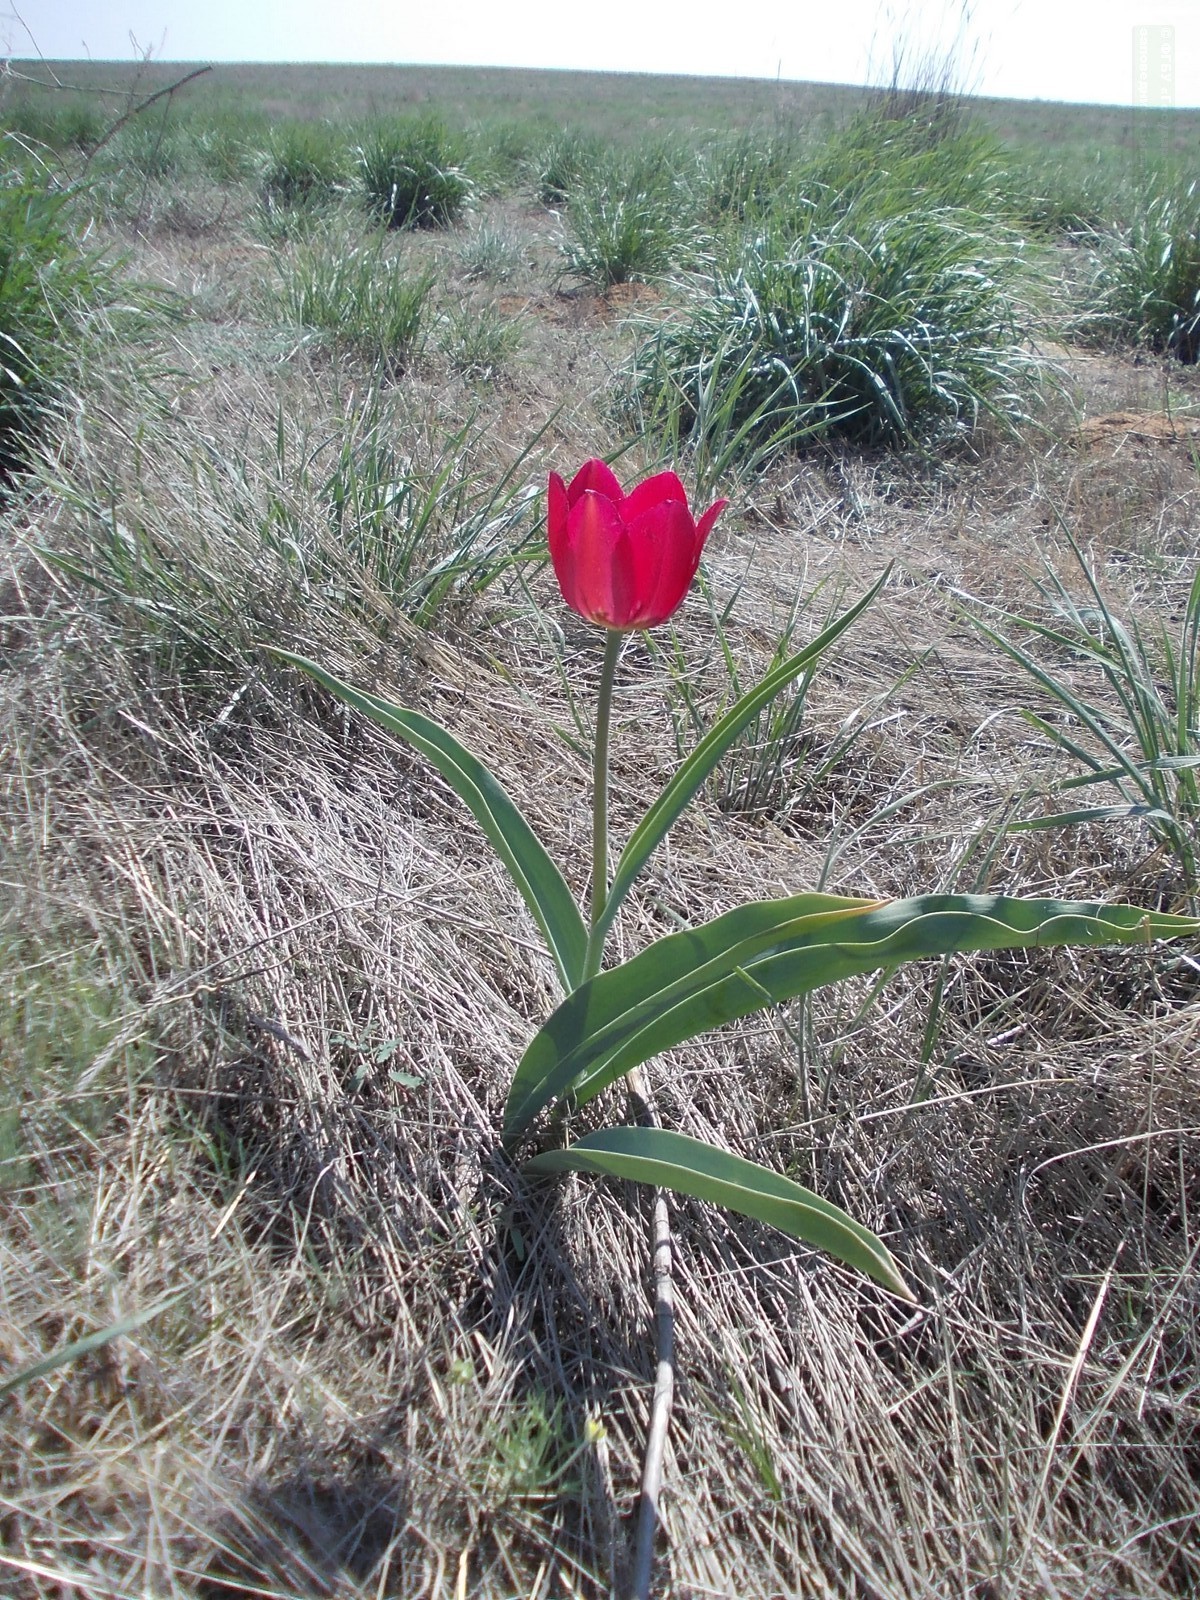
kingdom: Plantae
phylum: Tracheophyta
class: Liliopsida
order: Liliales
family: Liliaceae
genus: Tulipa
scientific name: Tulipa suaveolens
